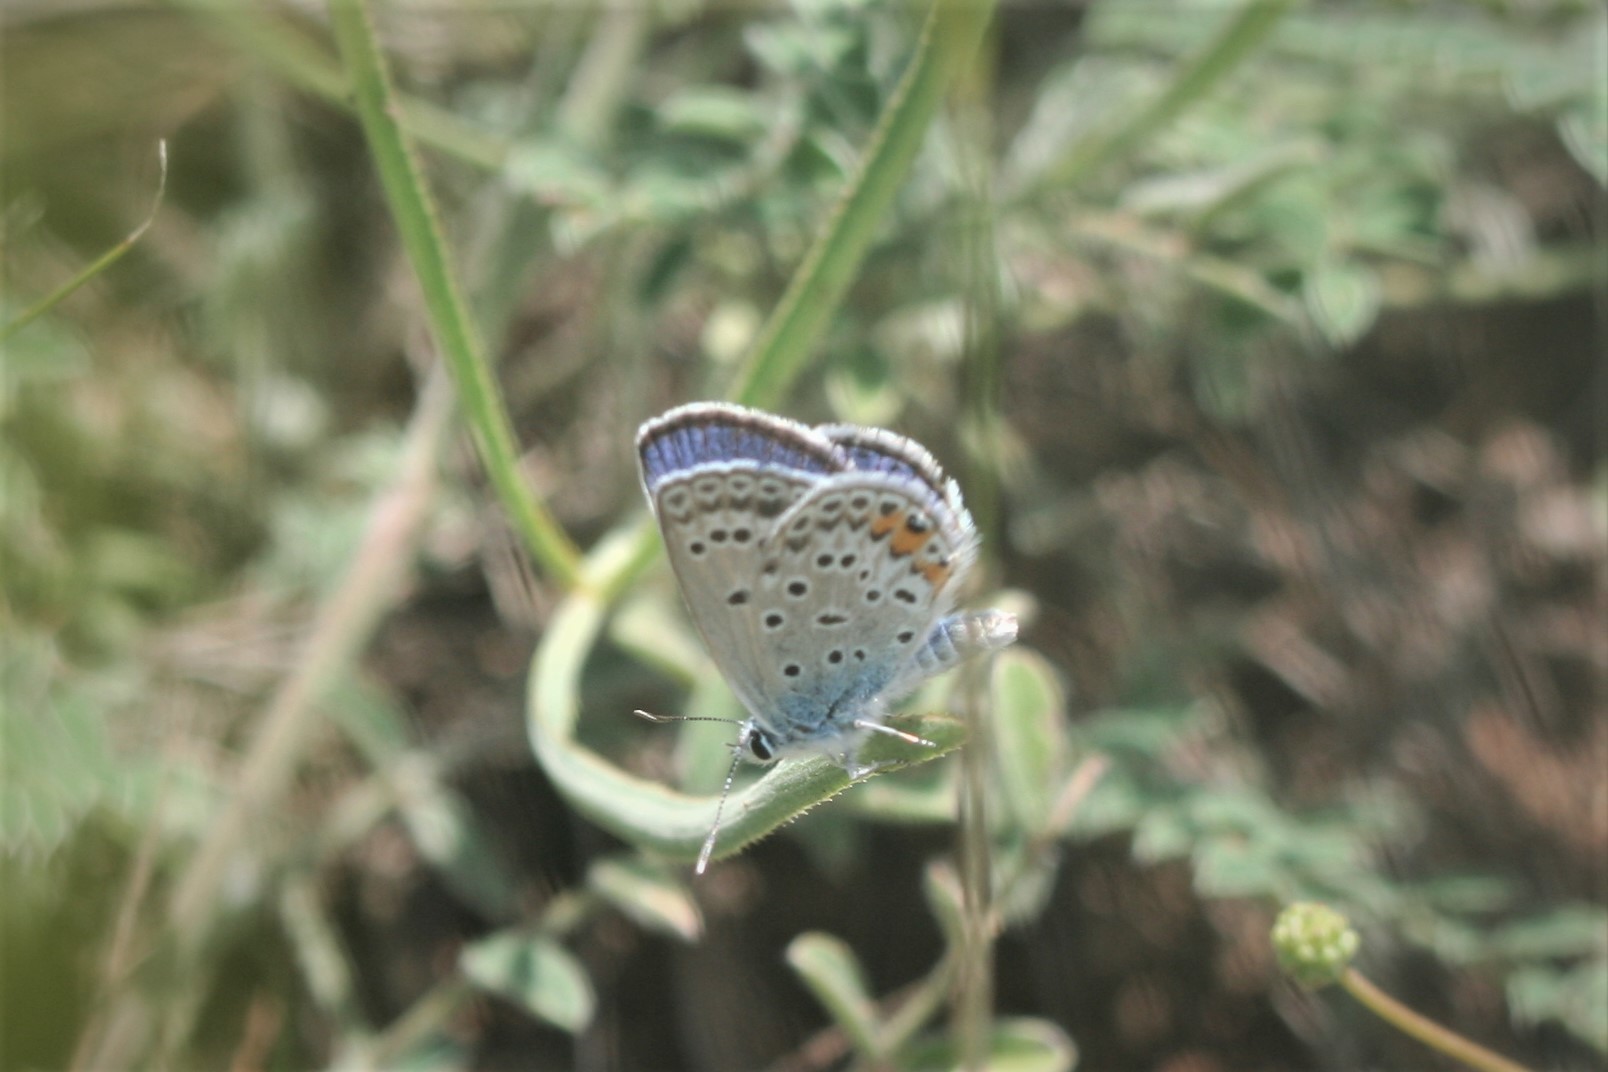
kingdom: Animalia
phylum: Arthropoda
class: Insecta
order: Lepidoptera
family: Lycaenidae
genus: Plebejidea
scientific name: Plebejidea loewi
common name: Loew's blue
